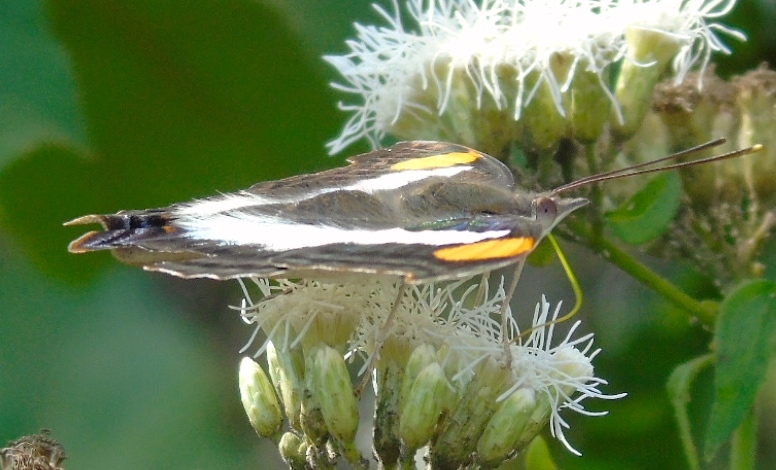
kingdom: Plantae
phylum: Tracheophyta
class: Magnoliopsida
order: Asterales
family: Asteraceae
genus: Chromolaena
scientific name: Chromolaena odorata
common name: Siamweed
